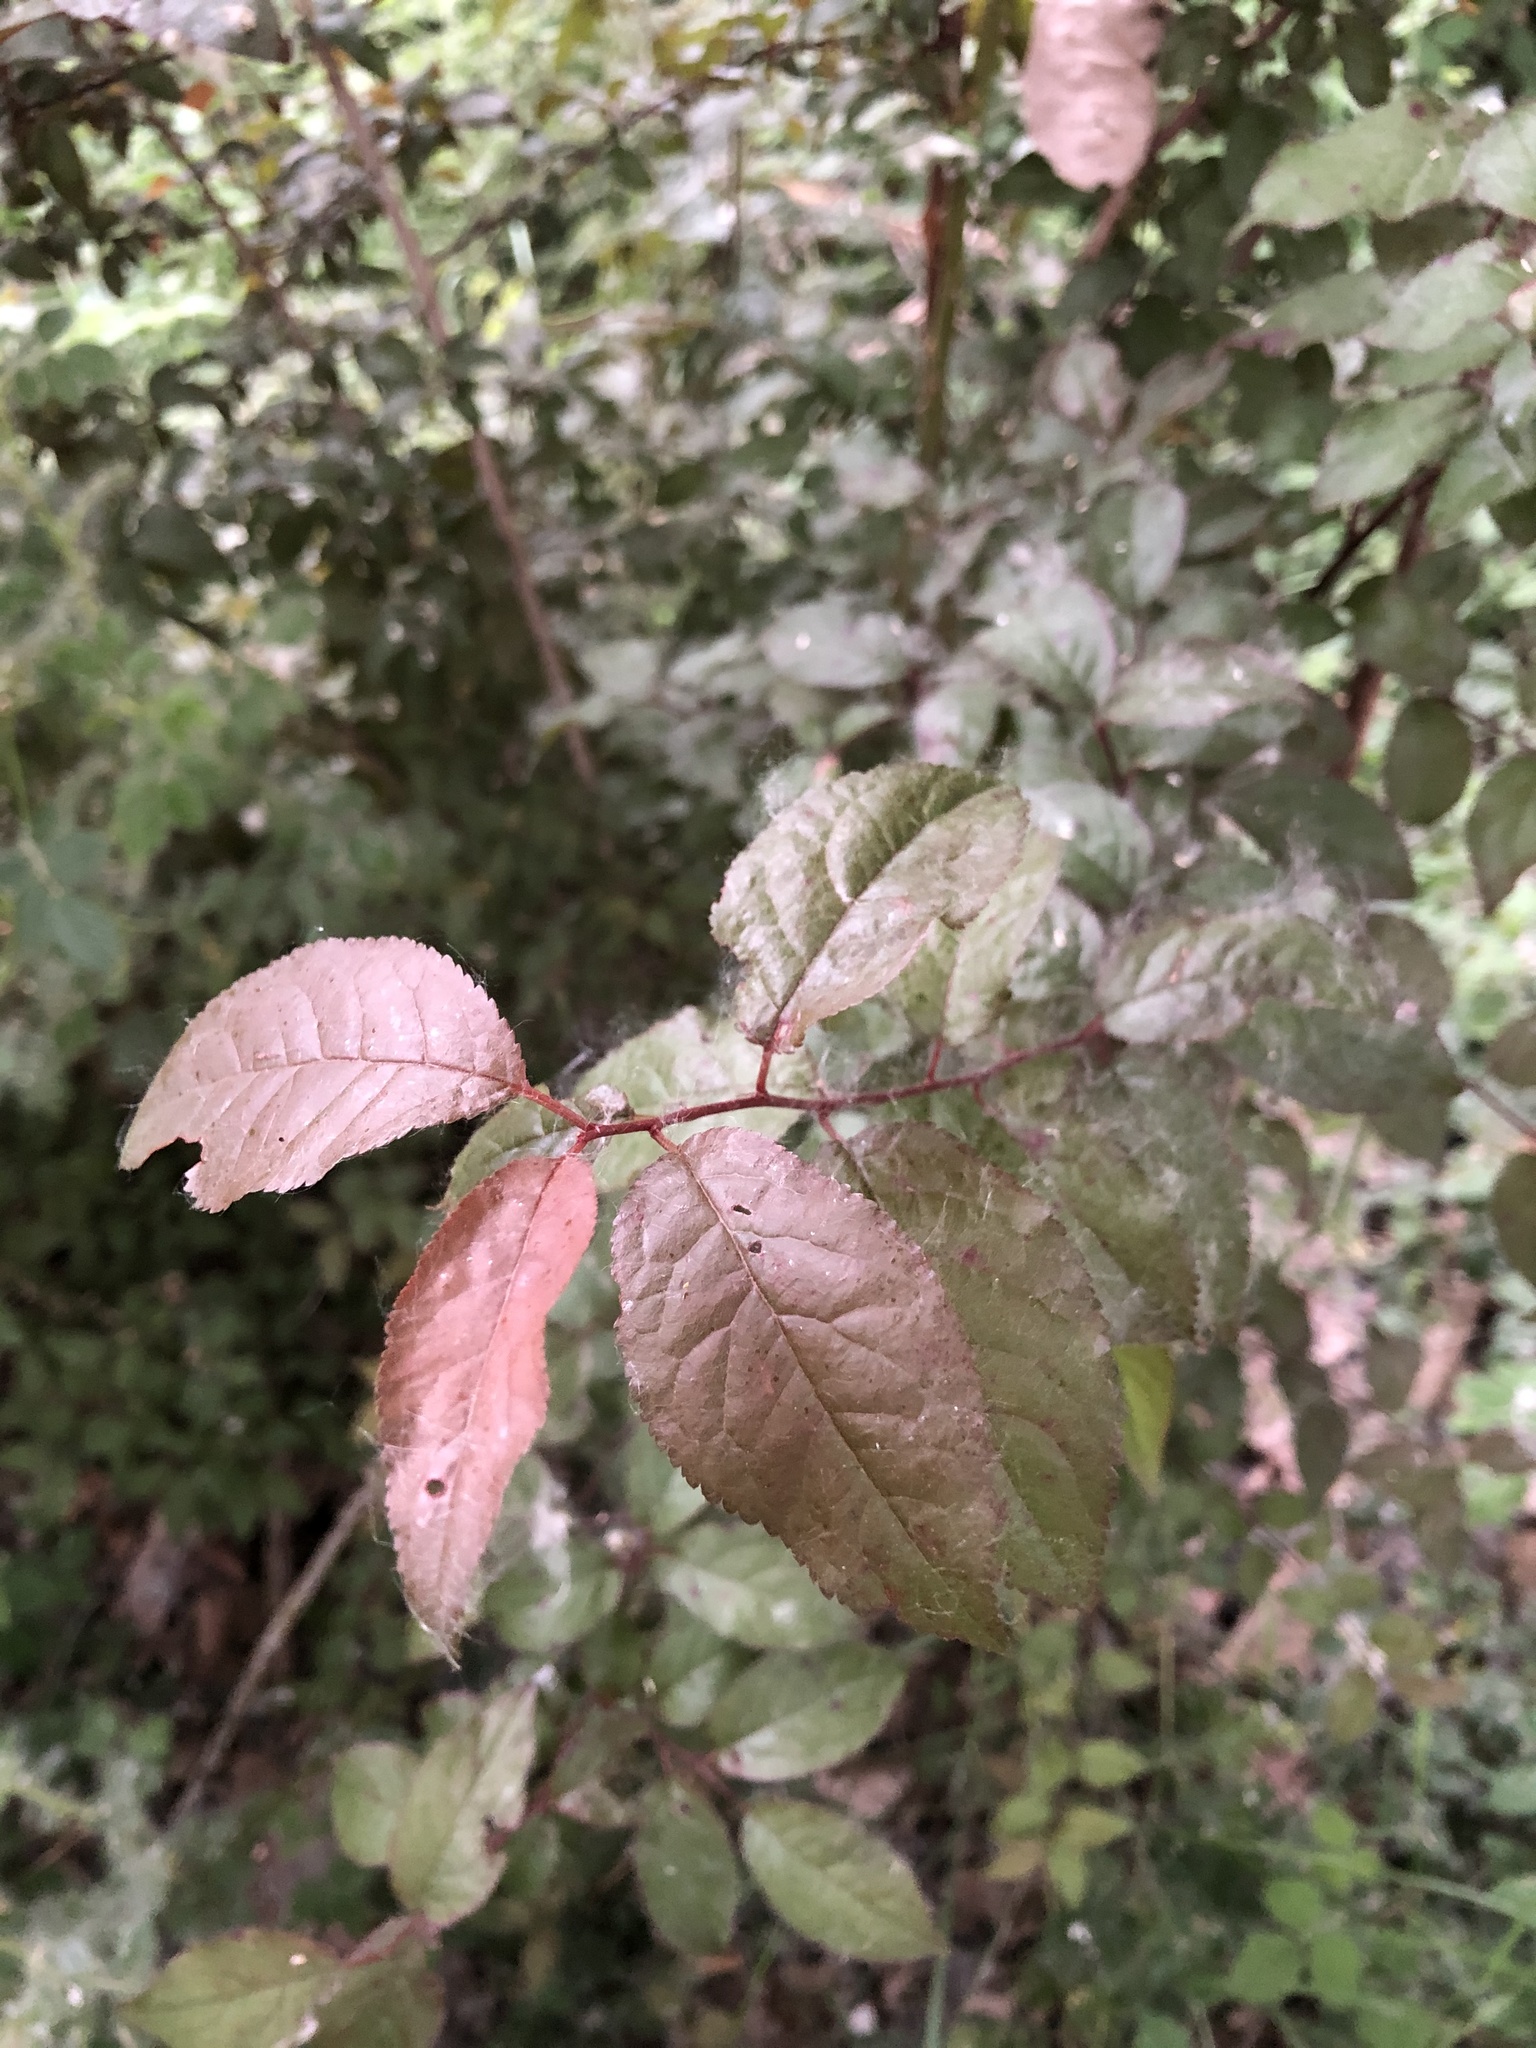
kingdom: Plantae
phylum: Tracheophyta
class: Magnoliopsida
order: Rosales
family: Rosaceae
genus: Prunus
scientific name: Prunus cerasifera
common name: Cherry plum
